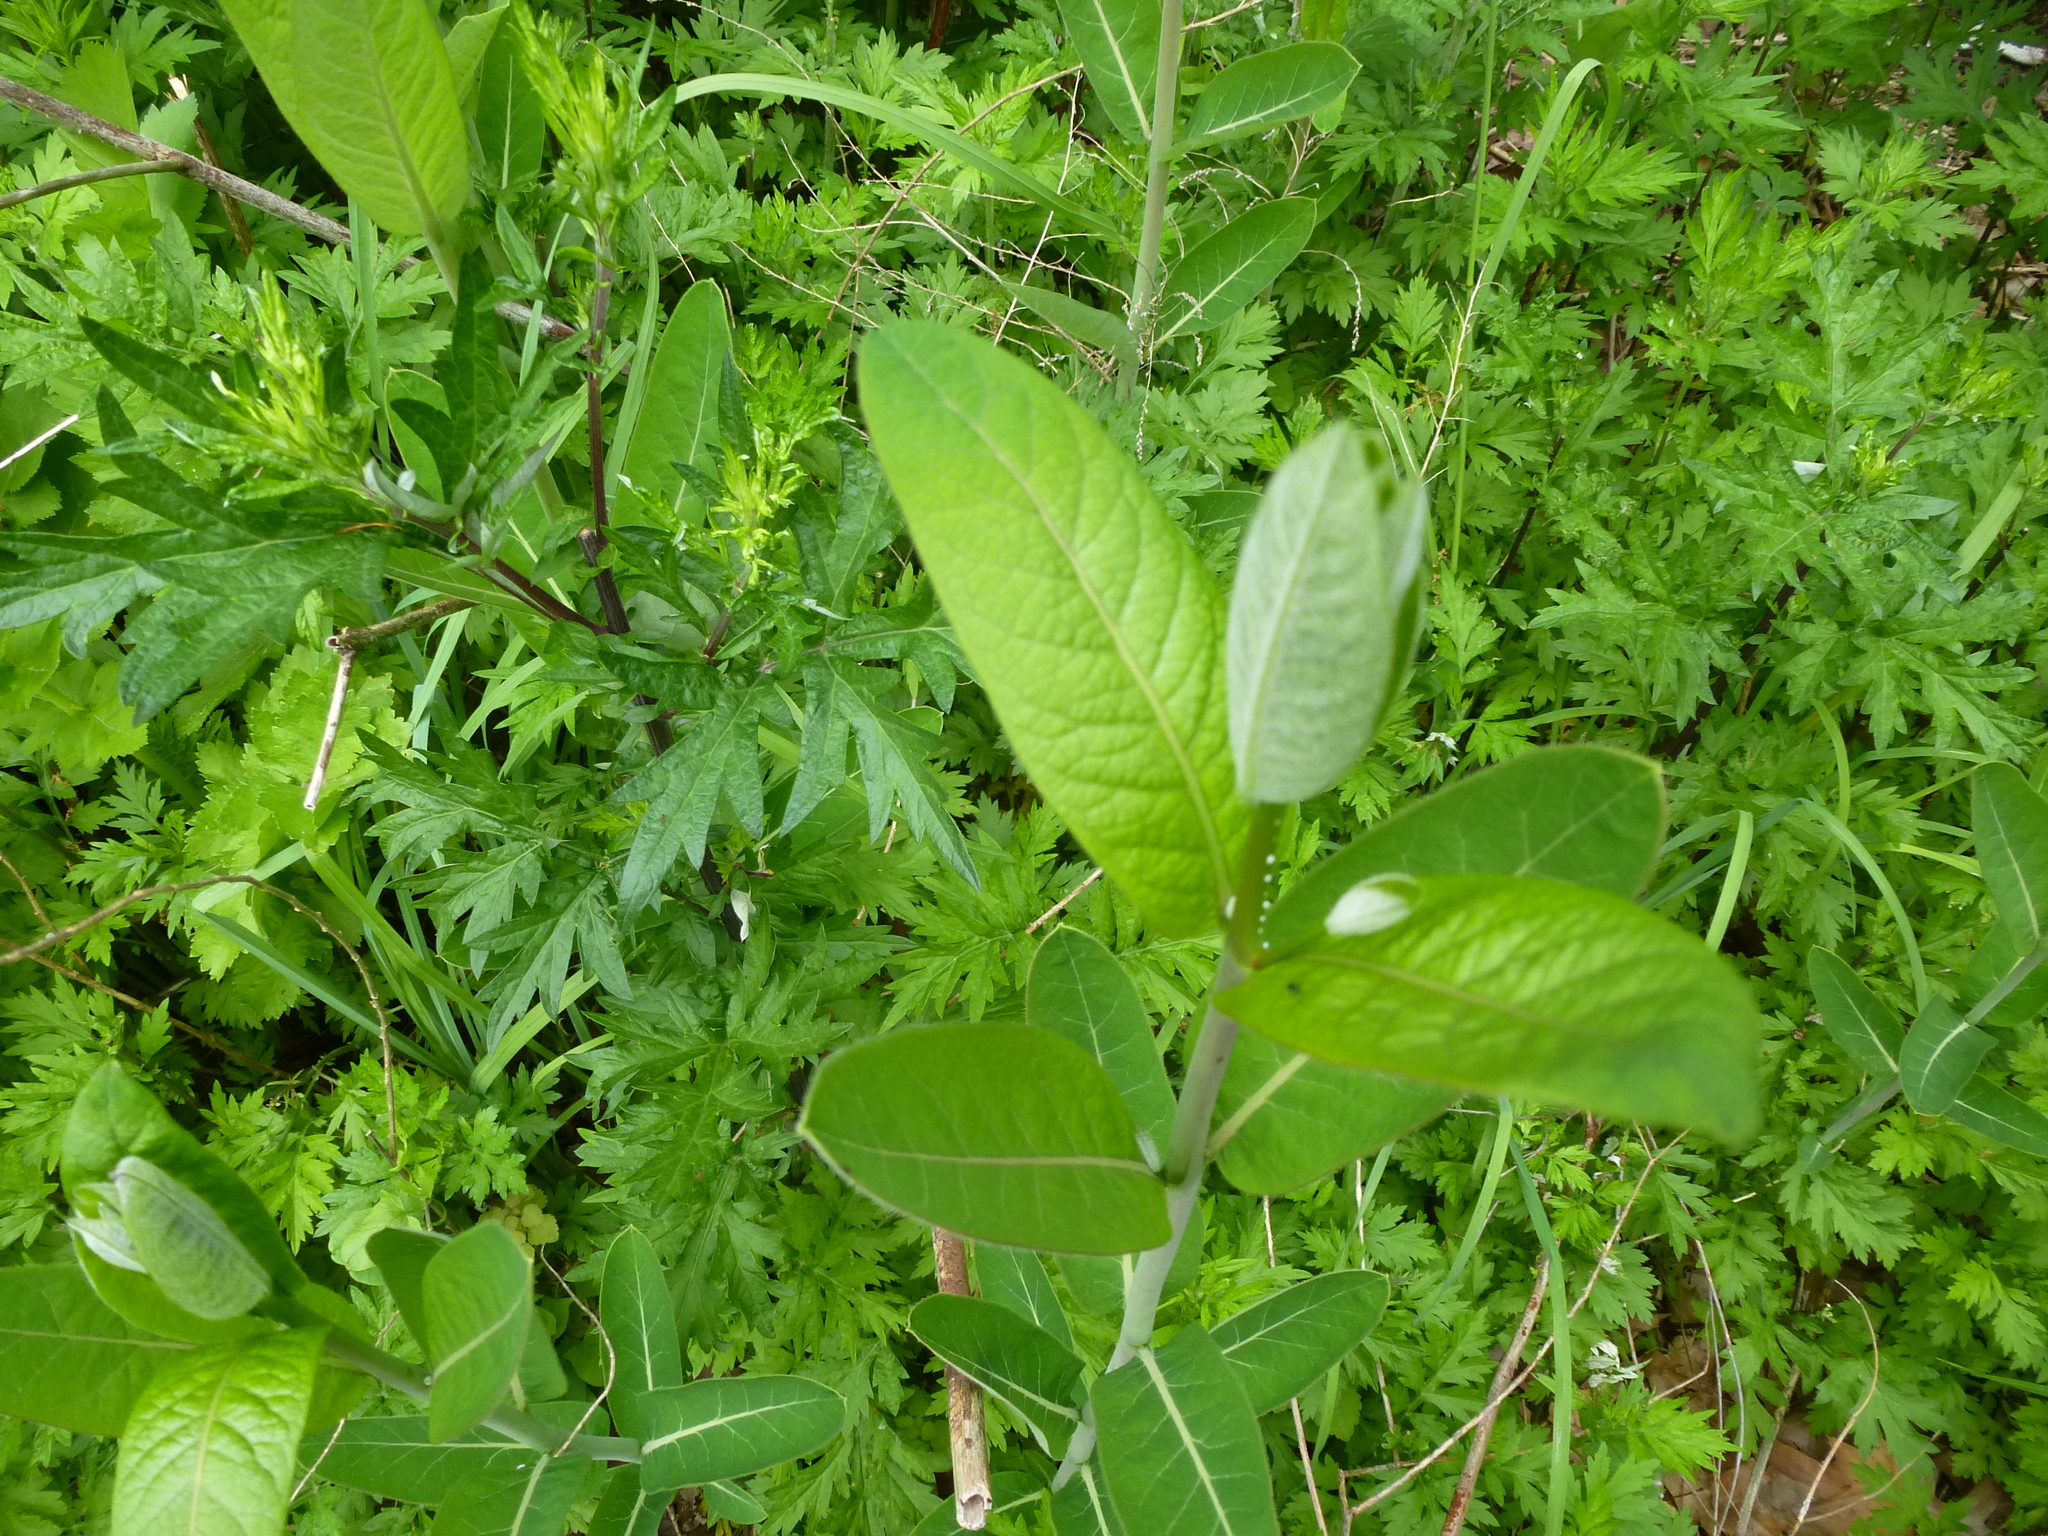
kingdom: Plantae
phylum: Tracheophyta
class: Magnoliopsida
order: Gentianales
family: Apocynaceae
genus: Apocynum
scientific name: Apocynum cannabinum
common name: Hemp dogbane
